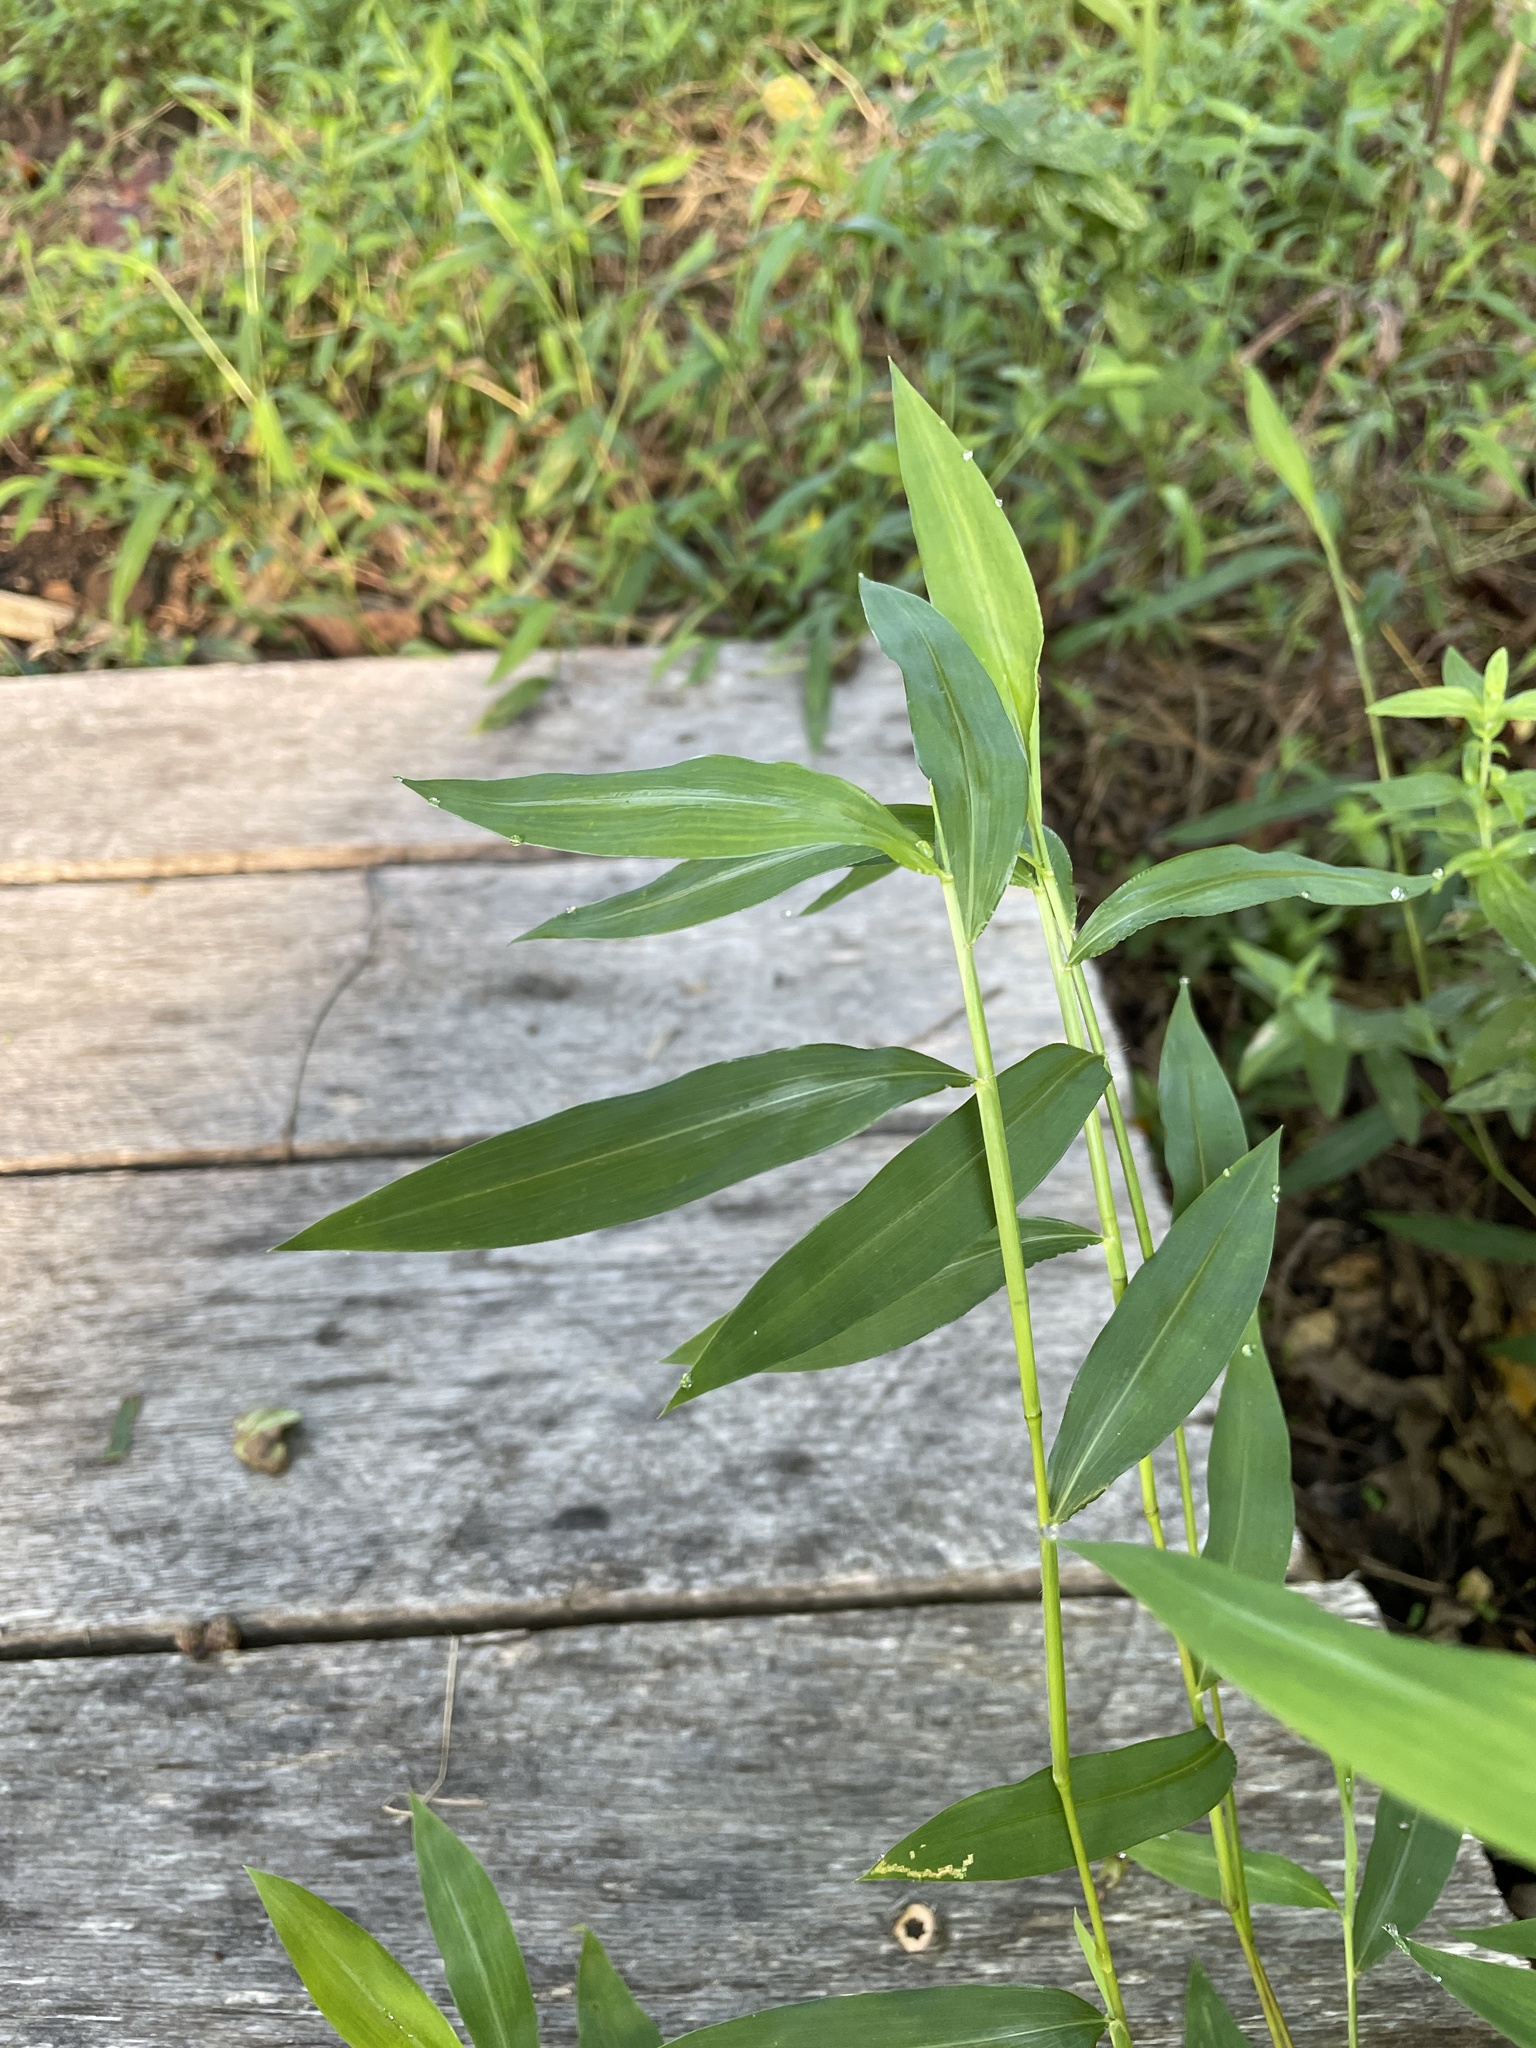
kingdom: Plantae
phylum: Tracheophyta
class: Liliopsida
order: Poales
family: Poaceae
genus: Microstegium
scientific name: Microstegium vimineum
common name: Japanese stiltgrass
